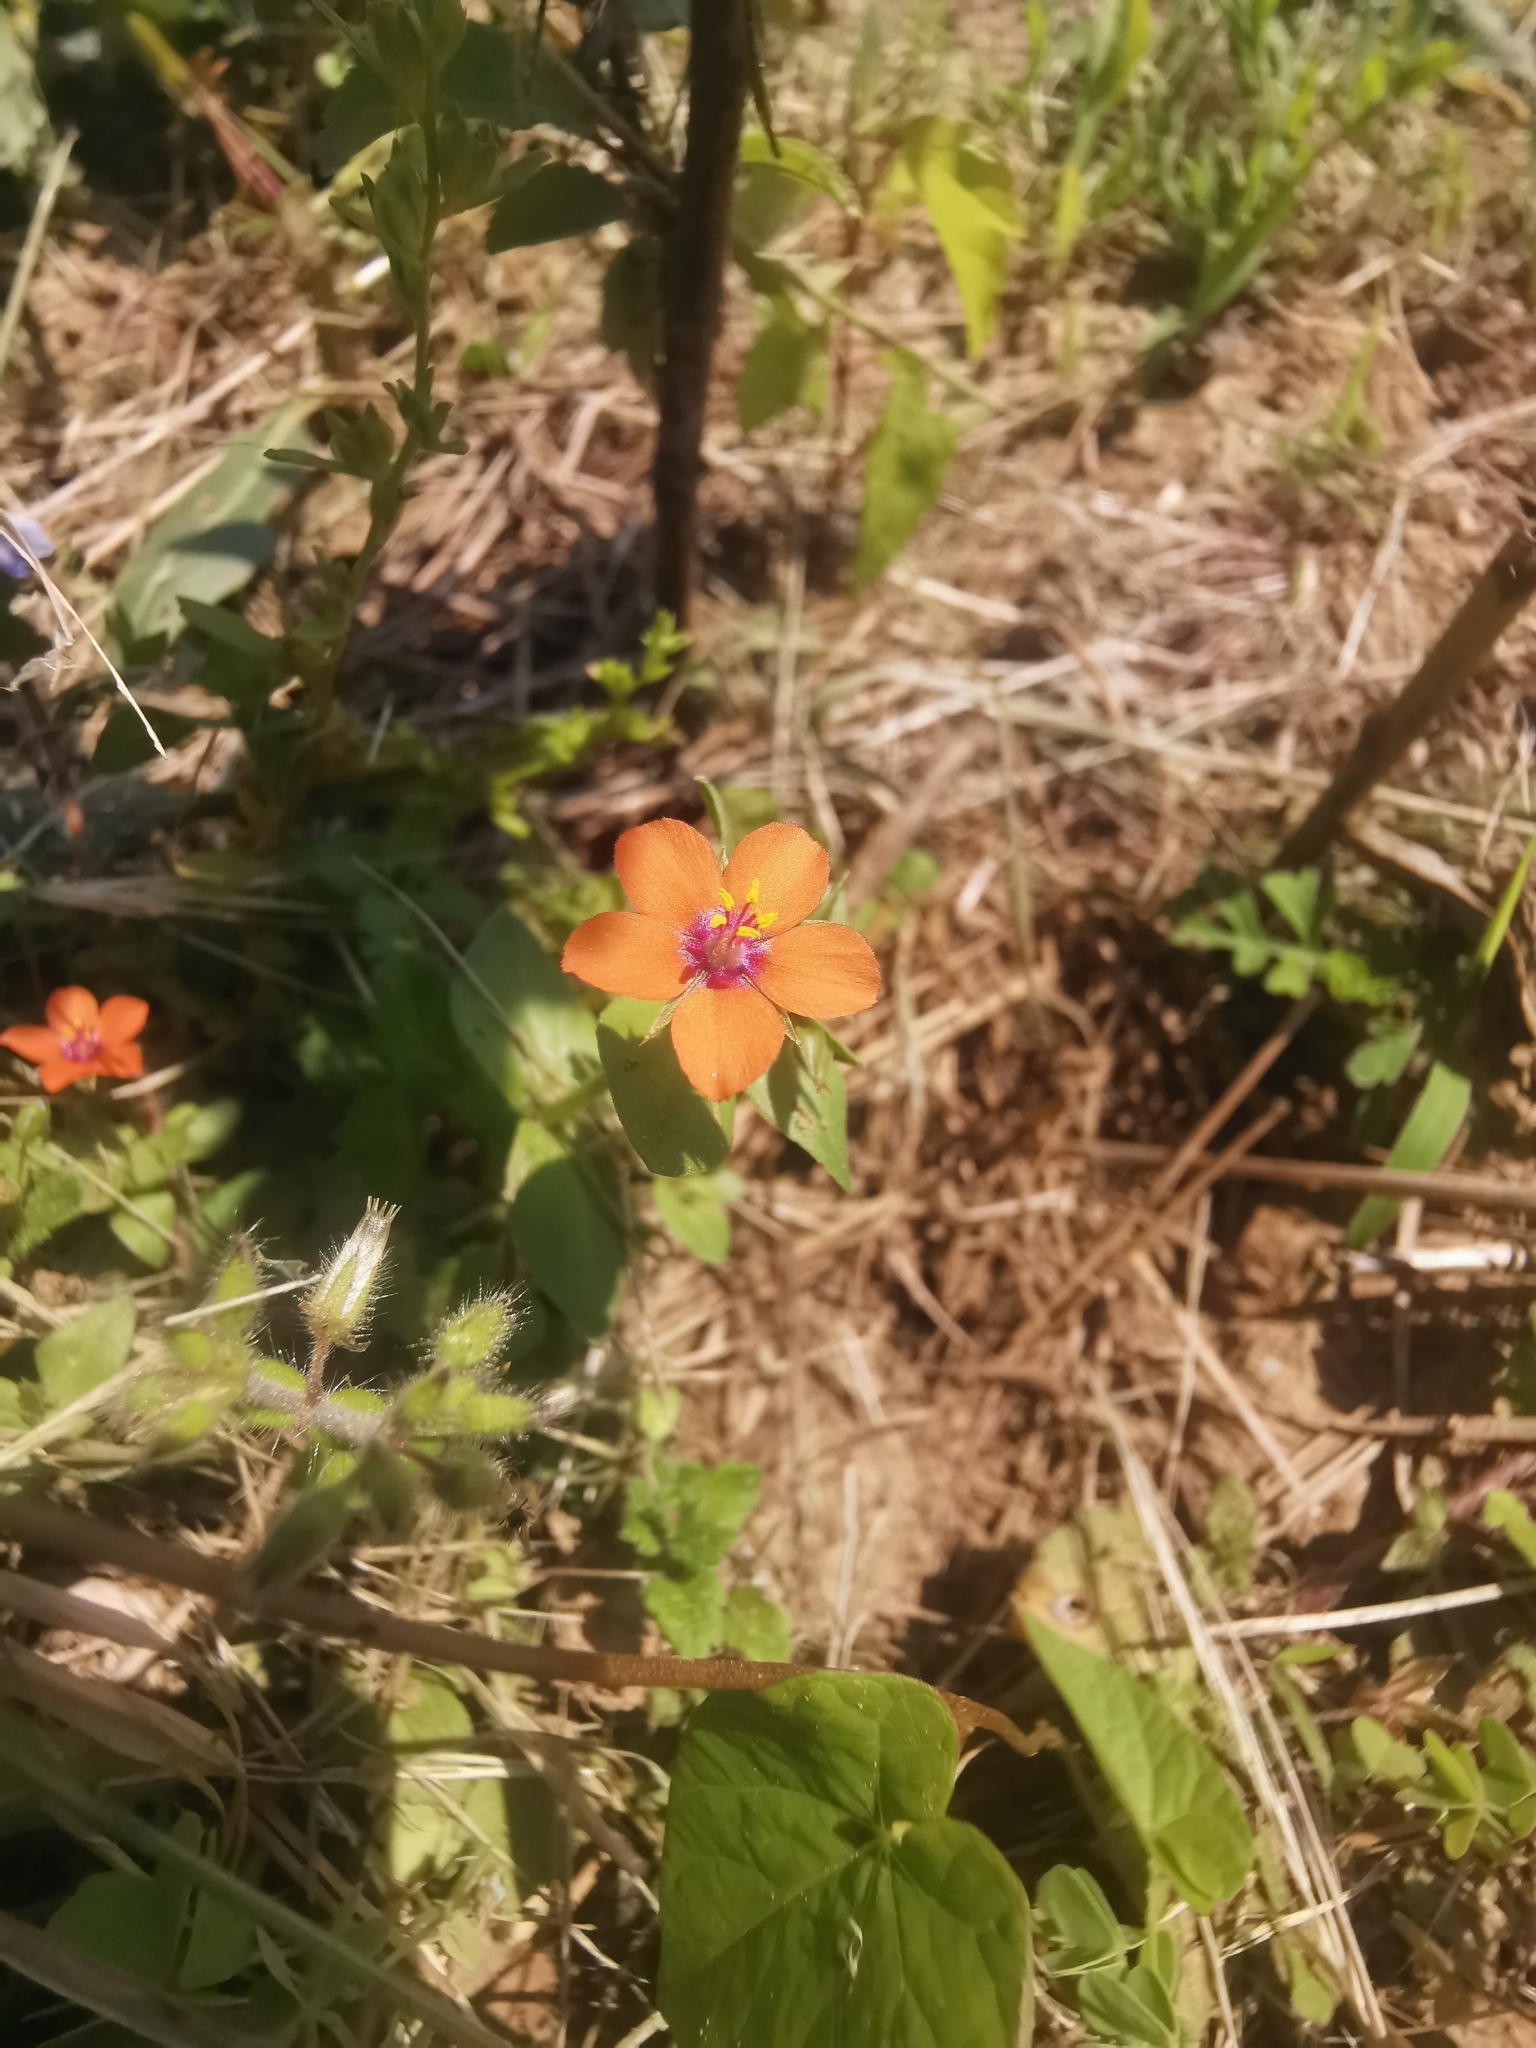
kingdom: Plantae
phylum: Tracheophyta
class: Magnoliopsida
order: Ericales
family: Primulaceae
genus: Lysimachia
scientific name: Lysimachia arvensis
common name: Scarlet pimpernel
